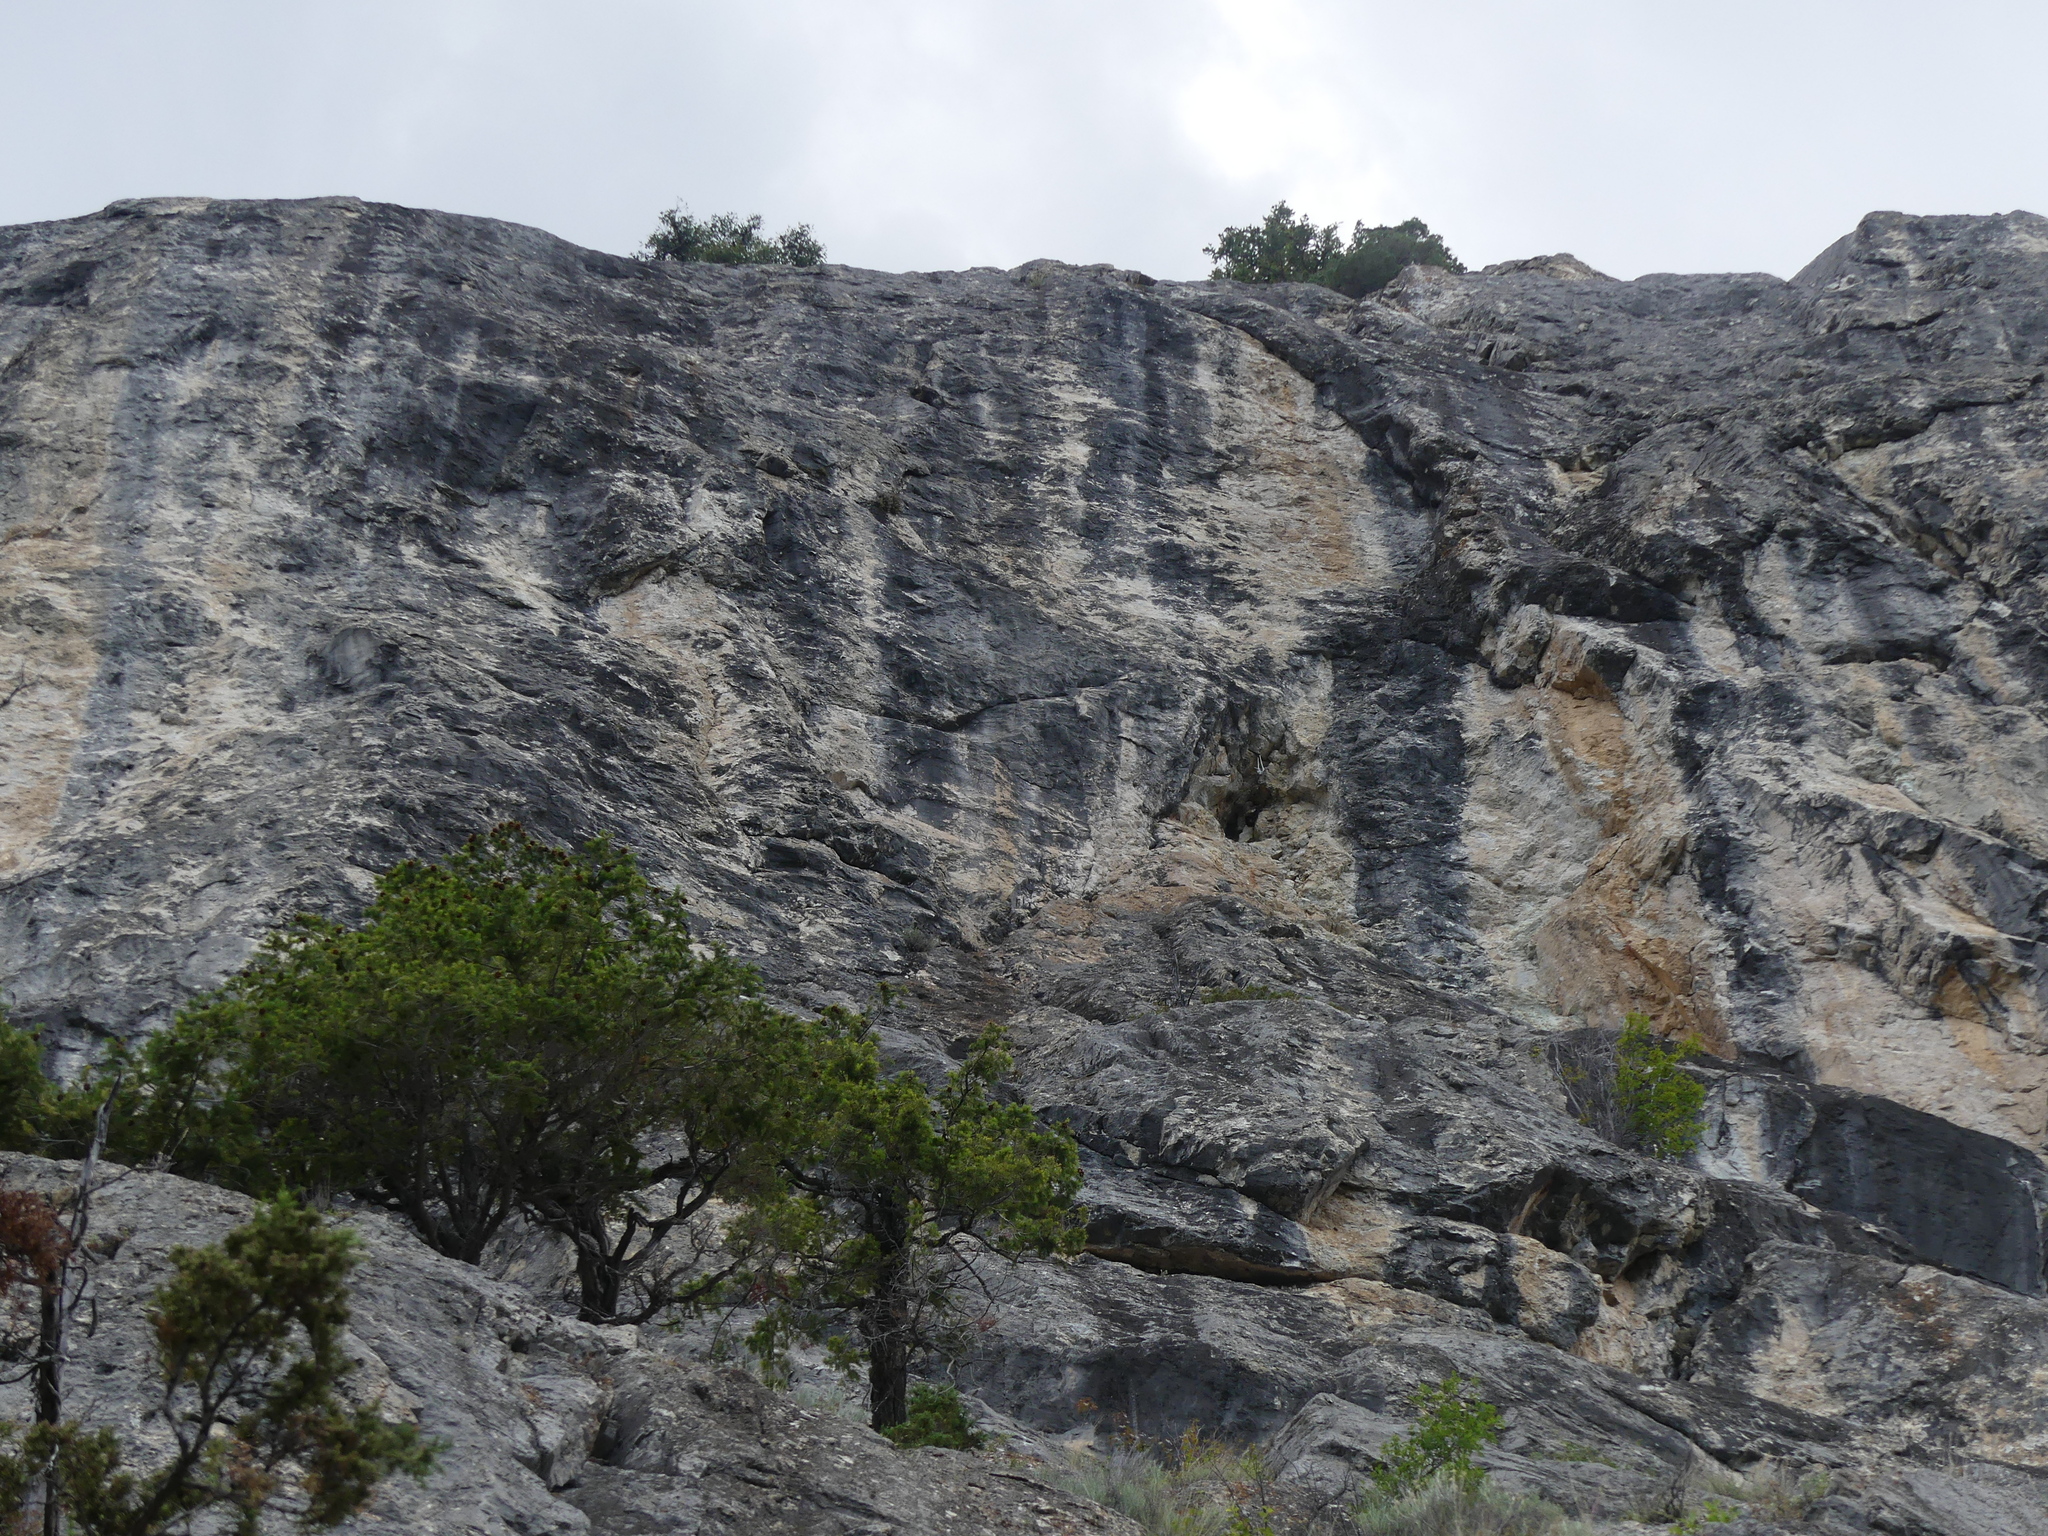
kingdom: Plantae
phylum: Tracheophyta
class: Pinopsida
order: Pinales
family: Pinaceae
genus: Pseudotsuga
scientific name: Pseudotsuga menziesii
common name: Douglas fir
